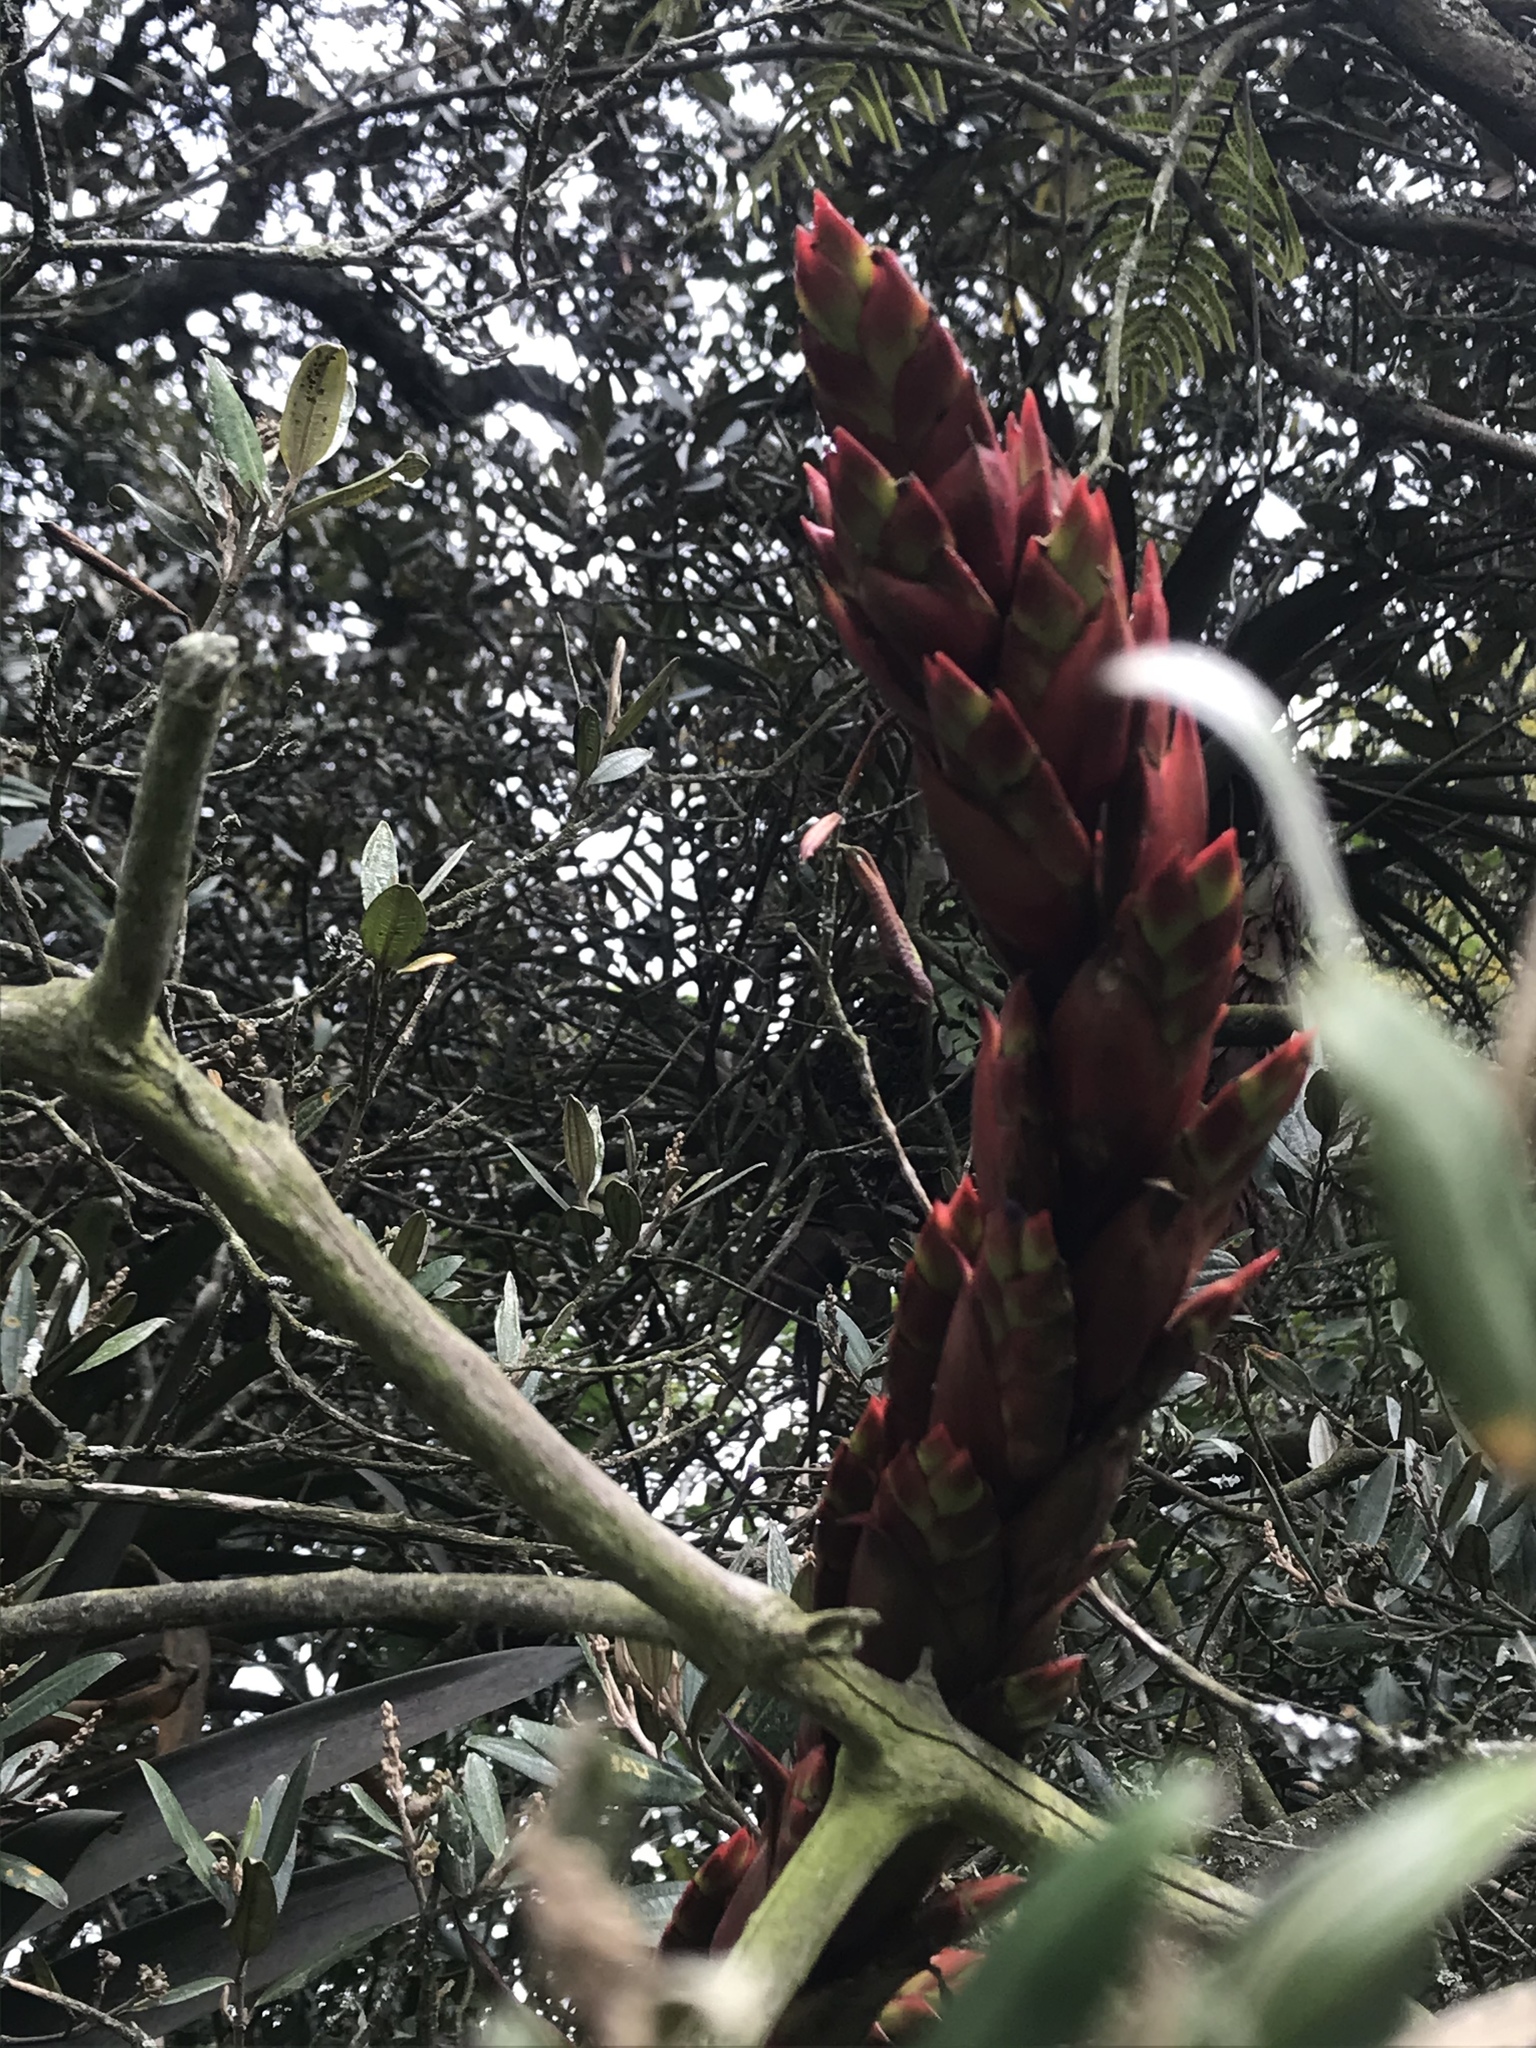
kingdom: Plantae
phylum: Tracheophyta
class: Liliopsida
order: Poales
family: Bromeliaceae
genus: Tillandsia
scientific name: Tillandsia pastensis
